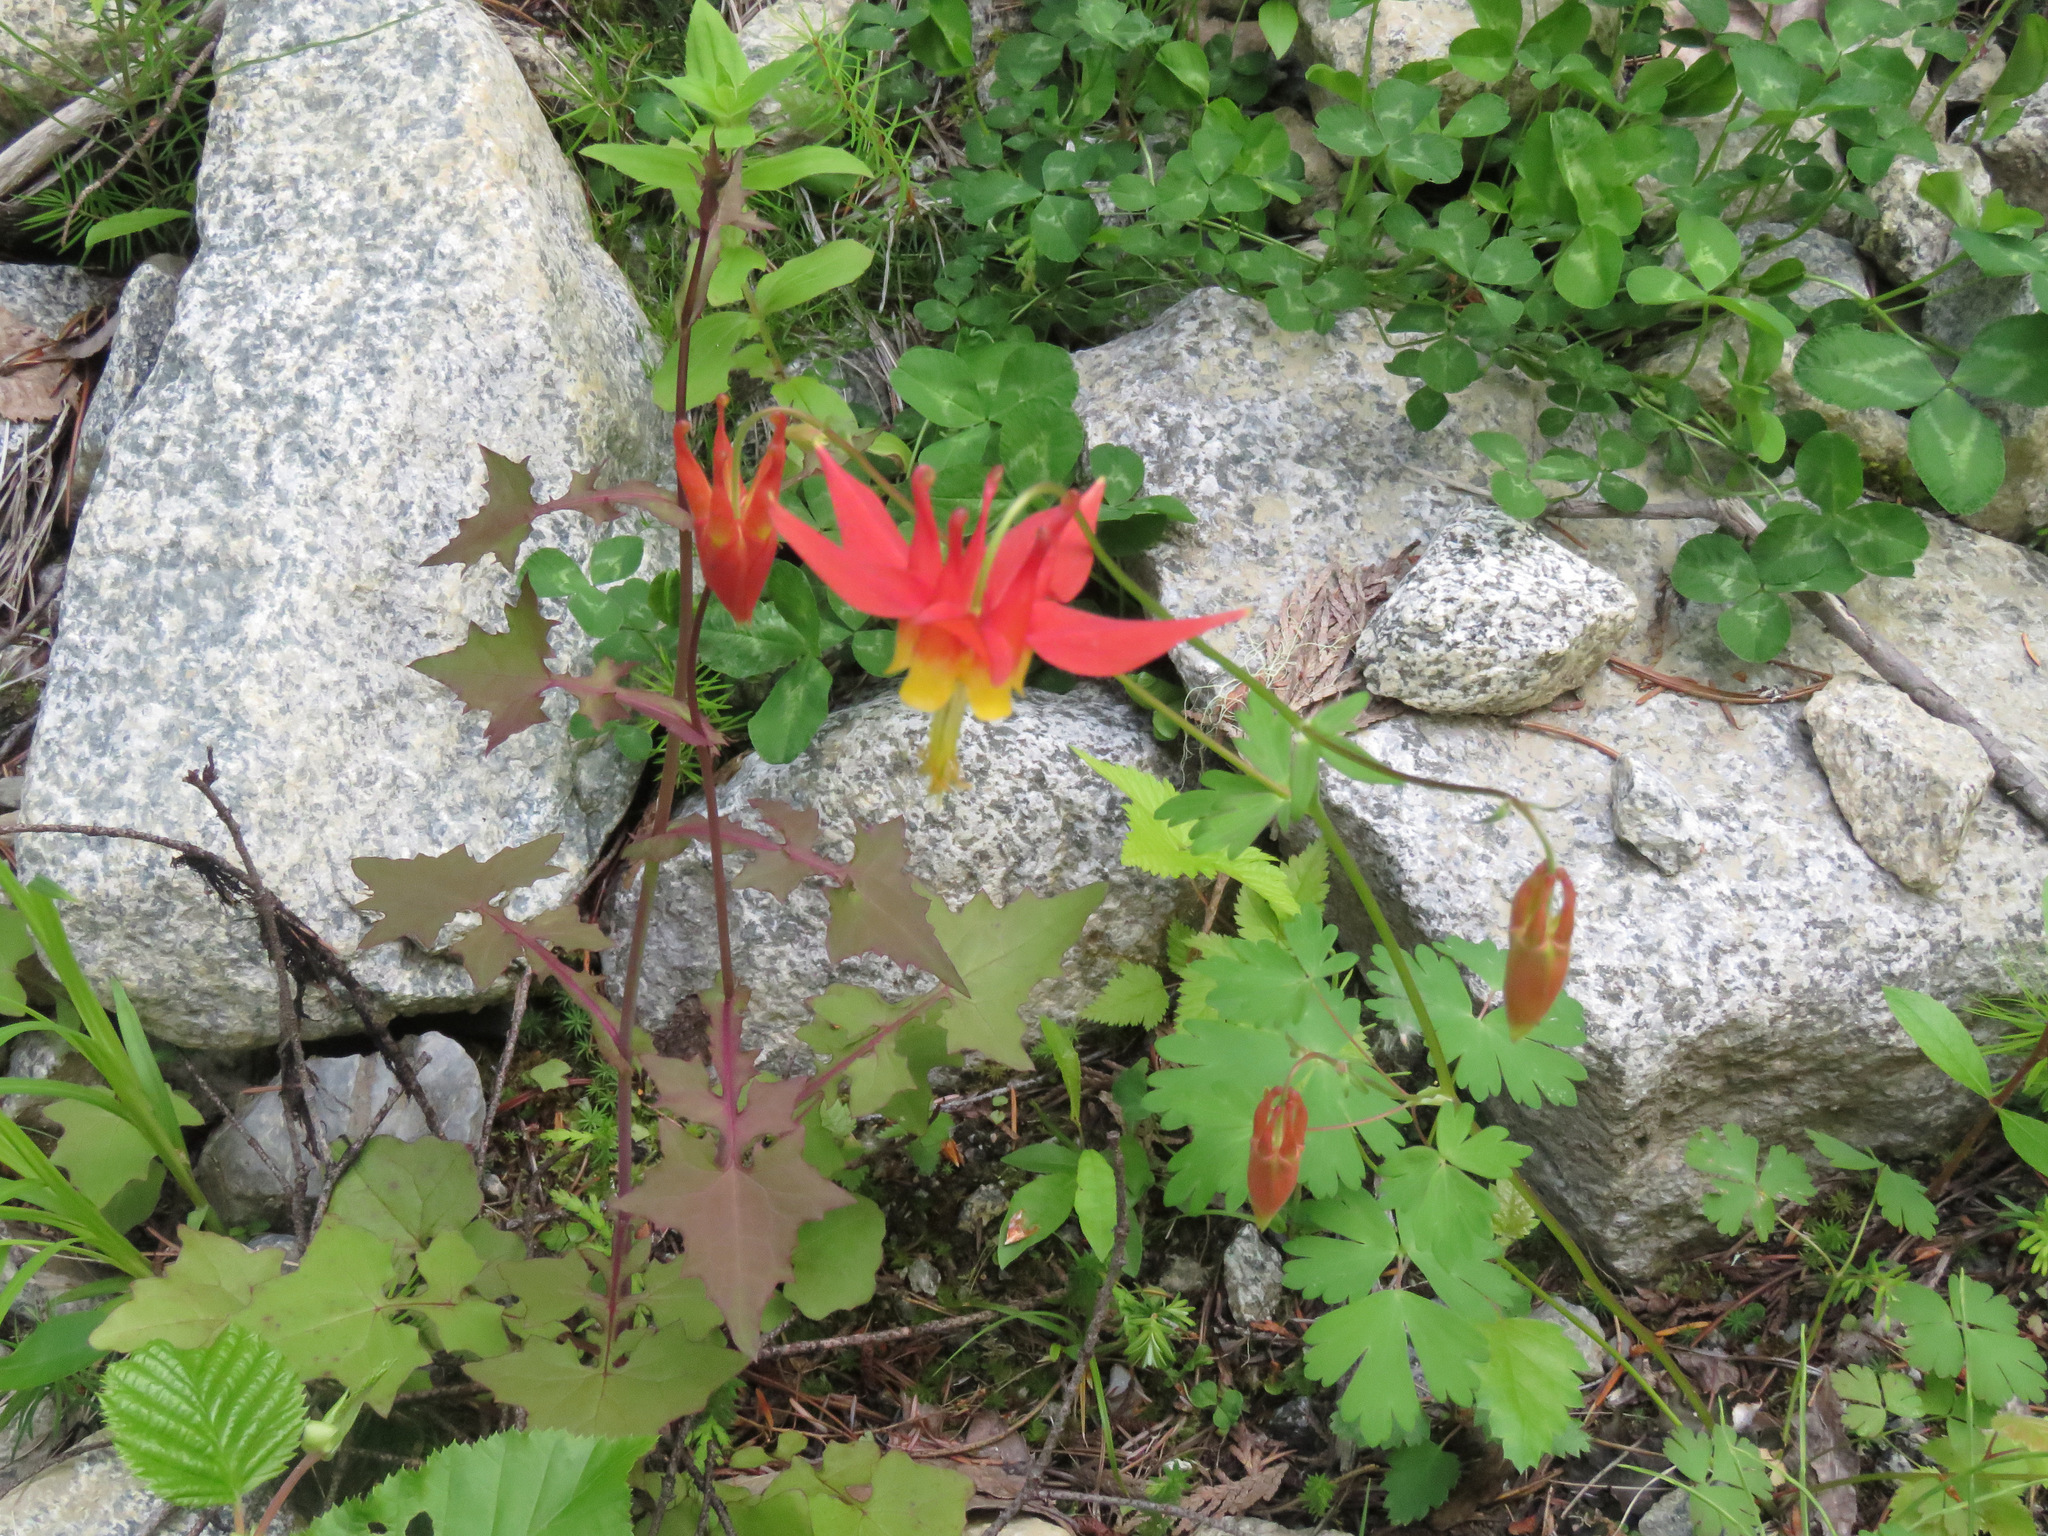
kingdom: Plantae
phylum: Tracheophyta
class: Magnoliopsida
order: Ranunculales
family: Ranunculaceae
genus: Aquilegia
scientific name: Aquilegia formosa
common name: Sitka columbine
